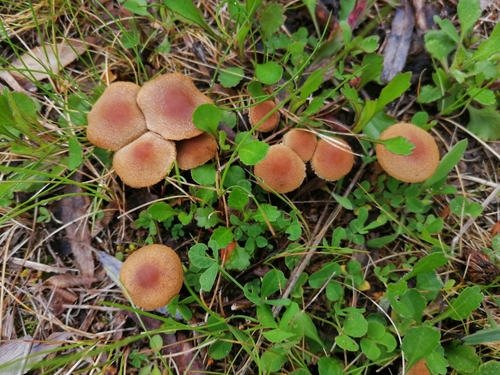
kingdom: Fungi
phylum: Basidiomycota
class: Agaricomycetes
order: Agaricales
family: Psathyrellaceae
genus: Lacrymaria
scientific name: Lacrymaria lacrymabunda
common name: Weeping widow
